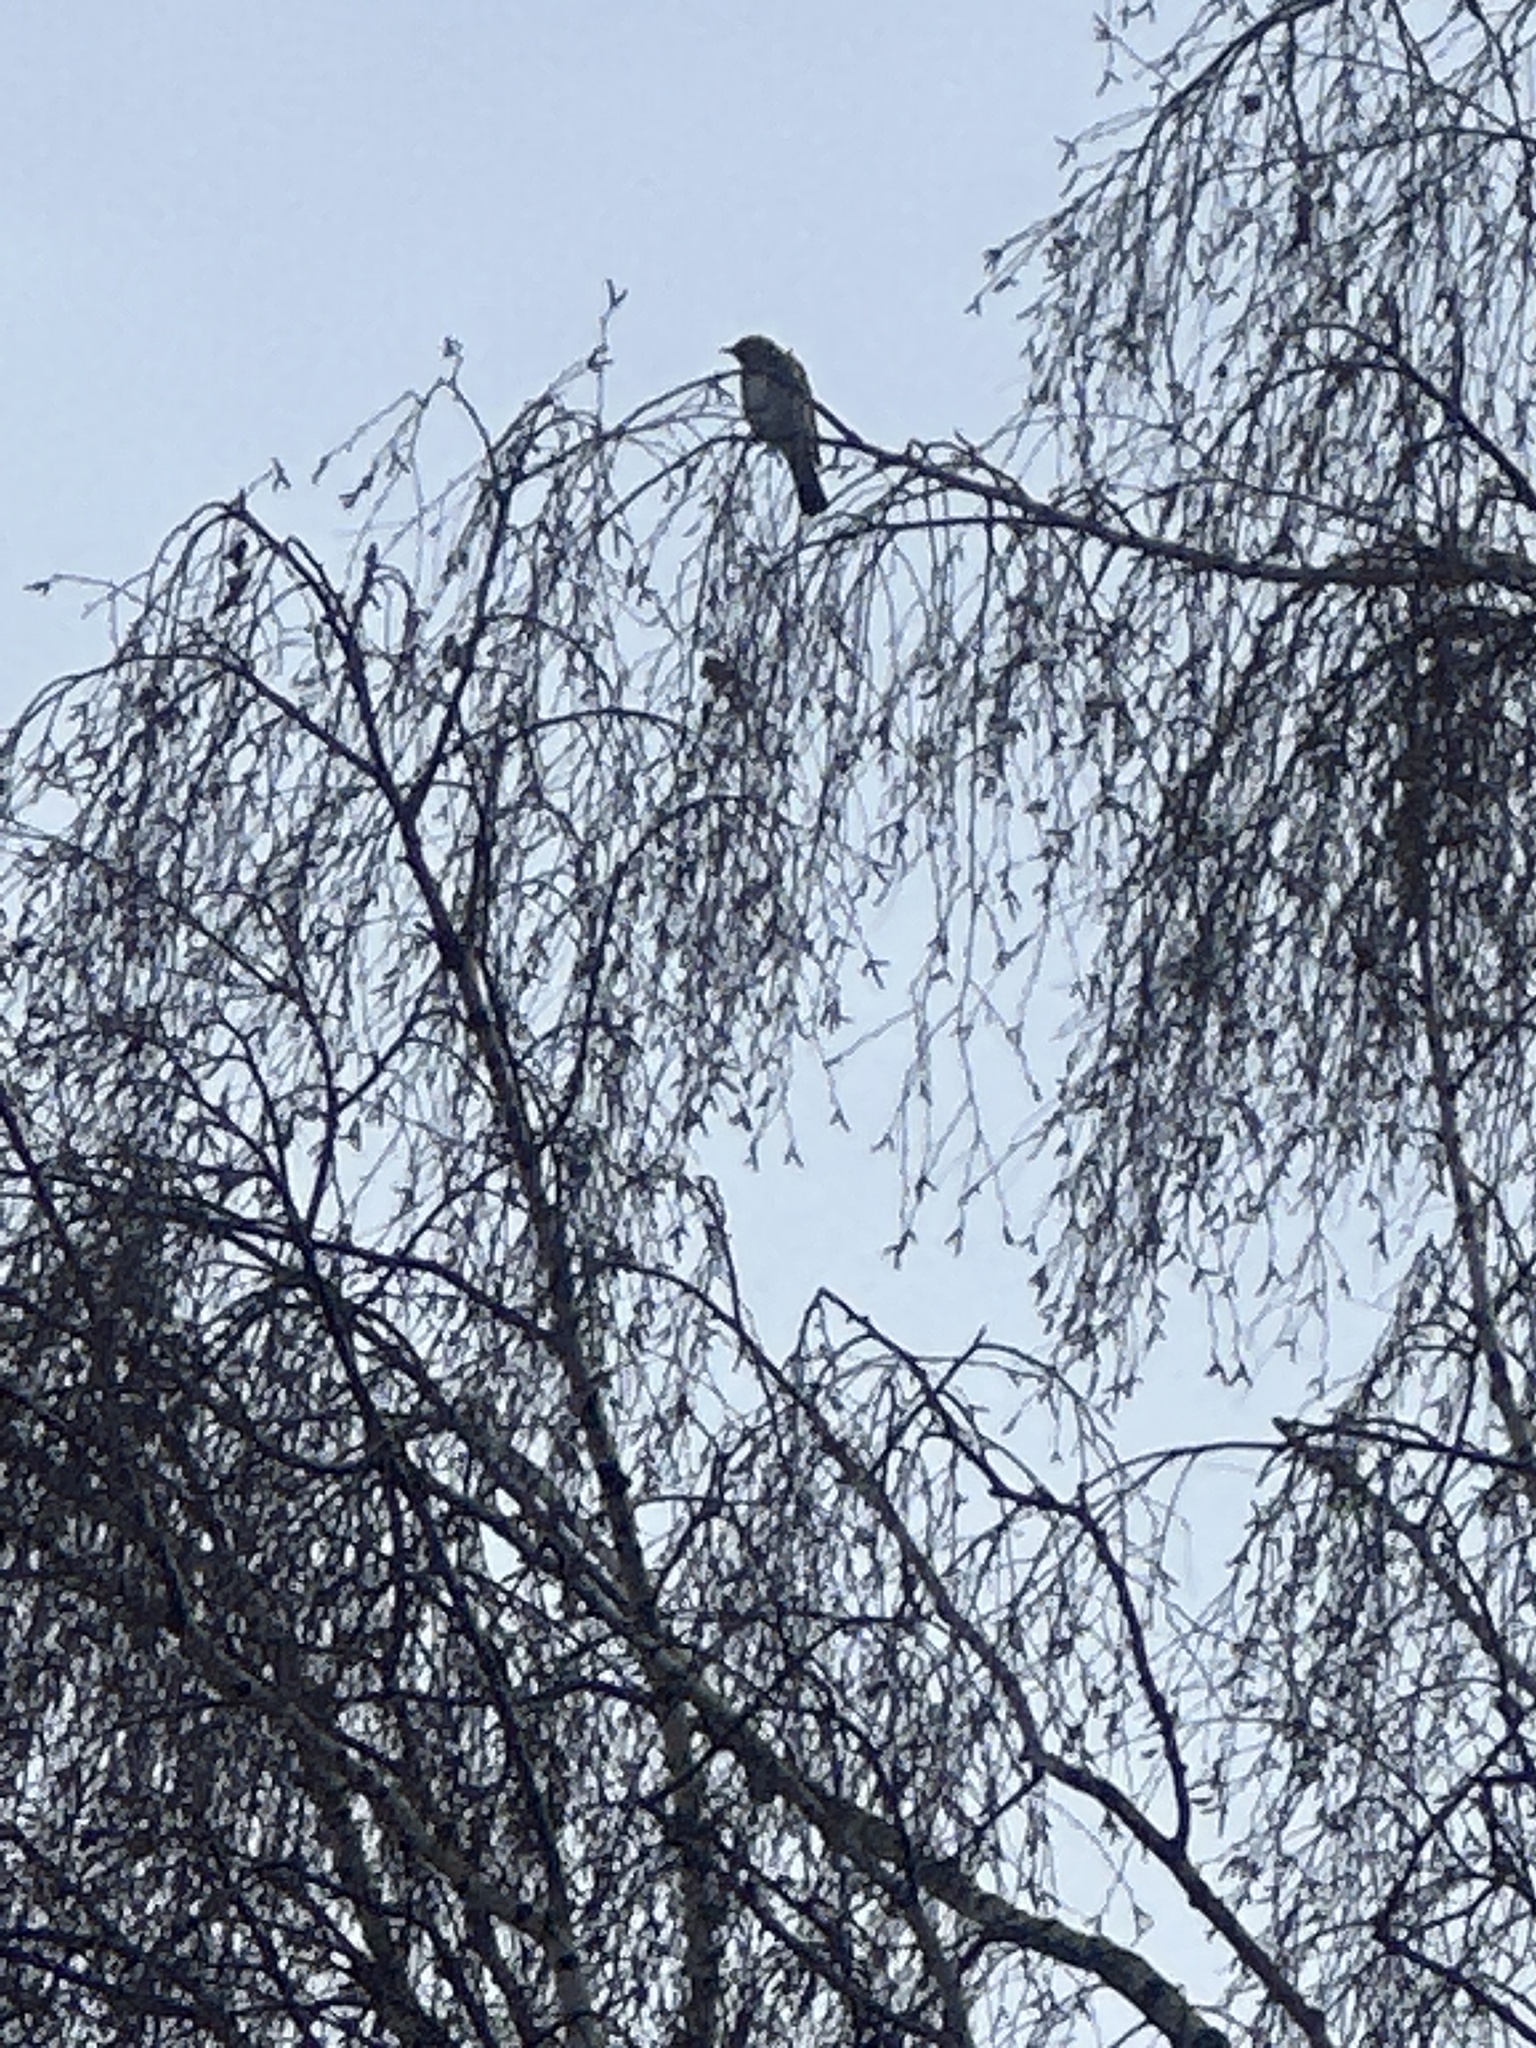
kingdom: Animalia
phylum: Chordata
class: Aves
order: Passeriformes
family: Turdidae
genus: Turdus
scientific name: Turdus pilaris
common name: Fieldfare
